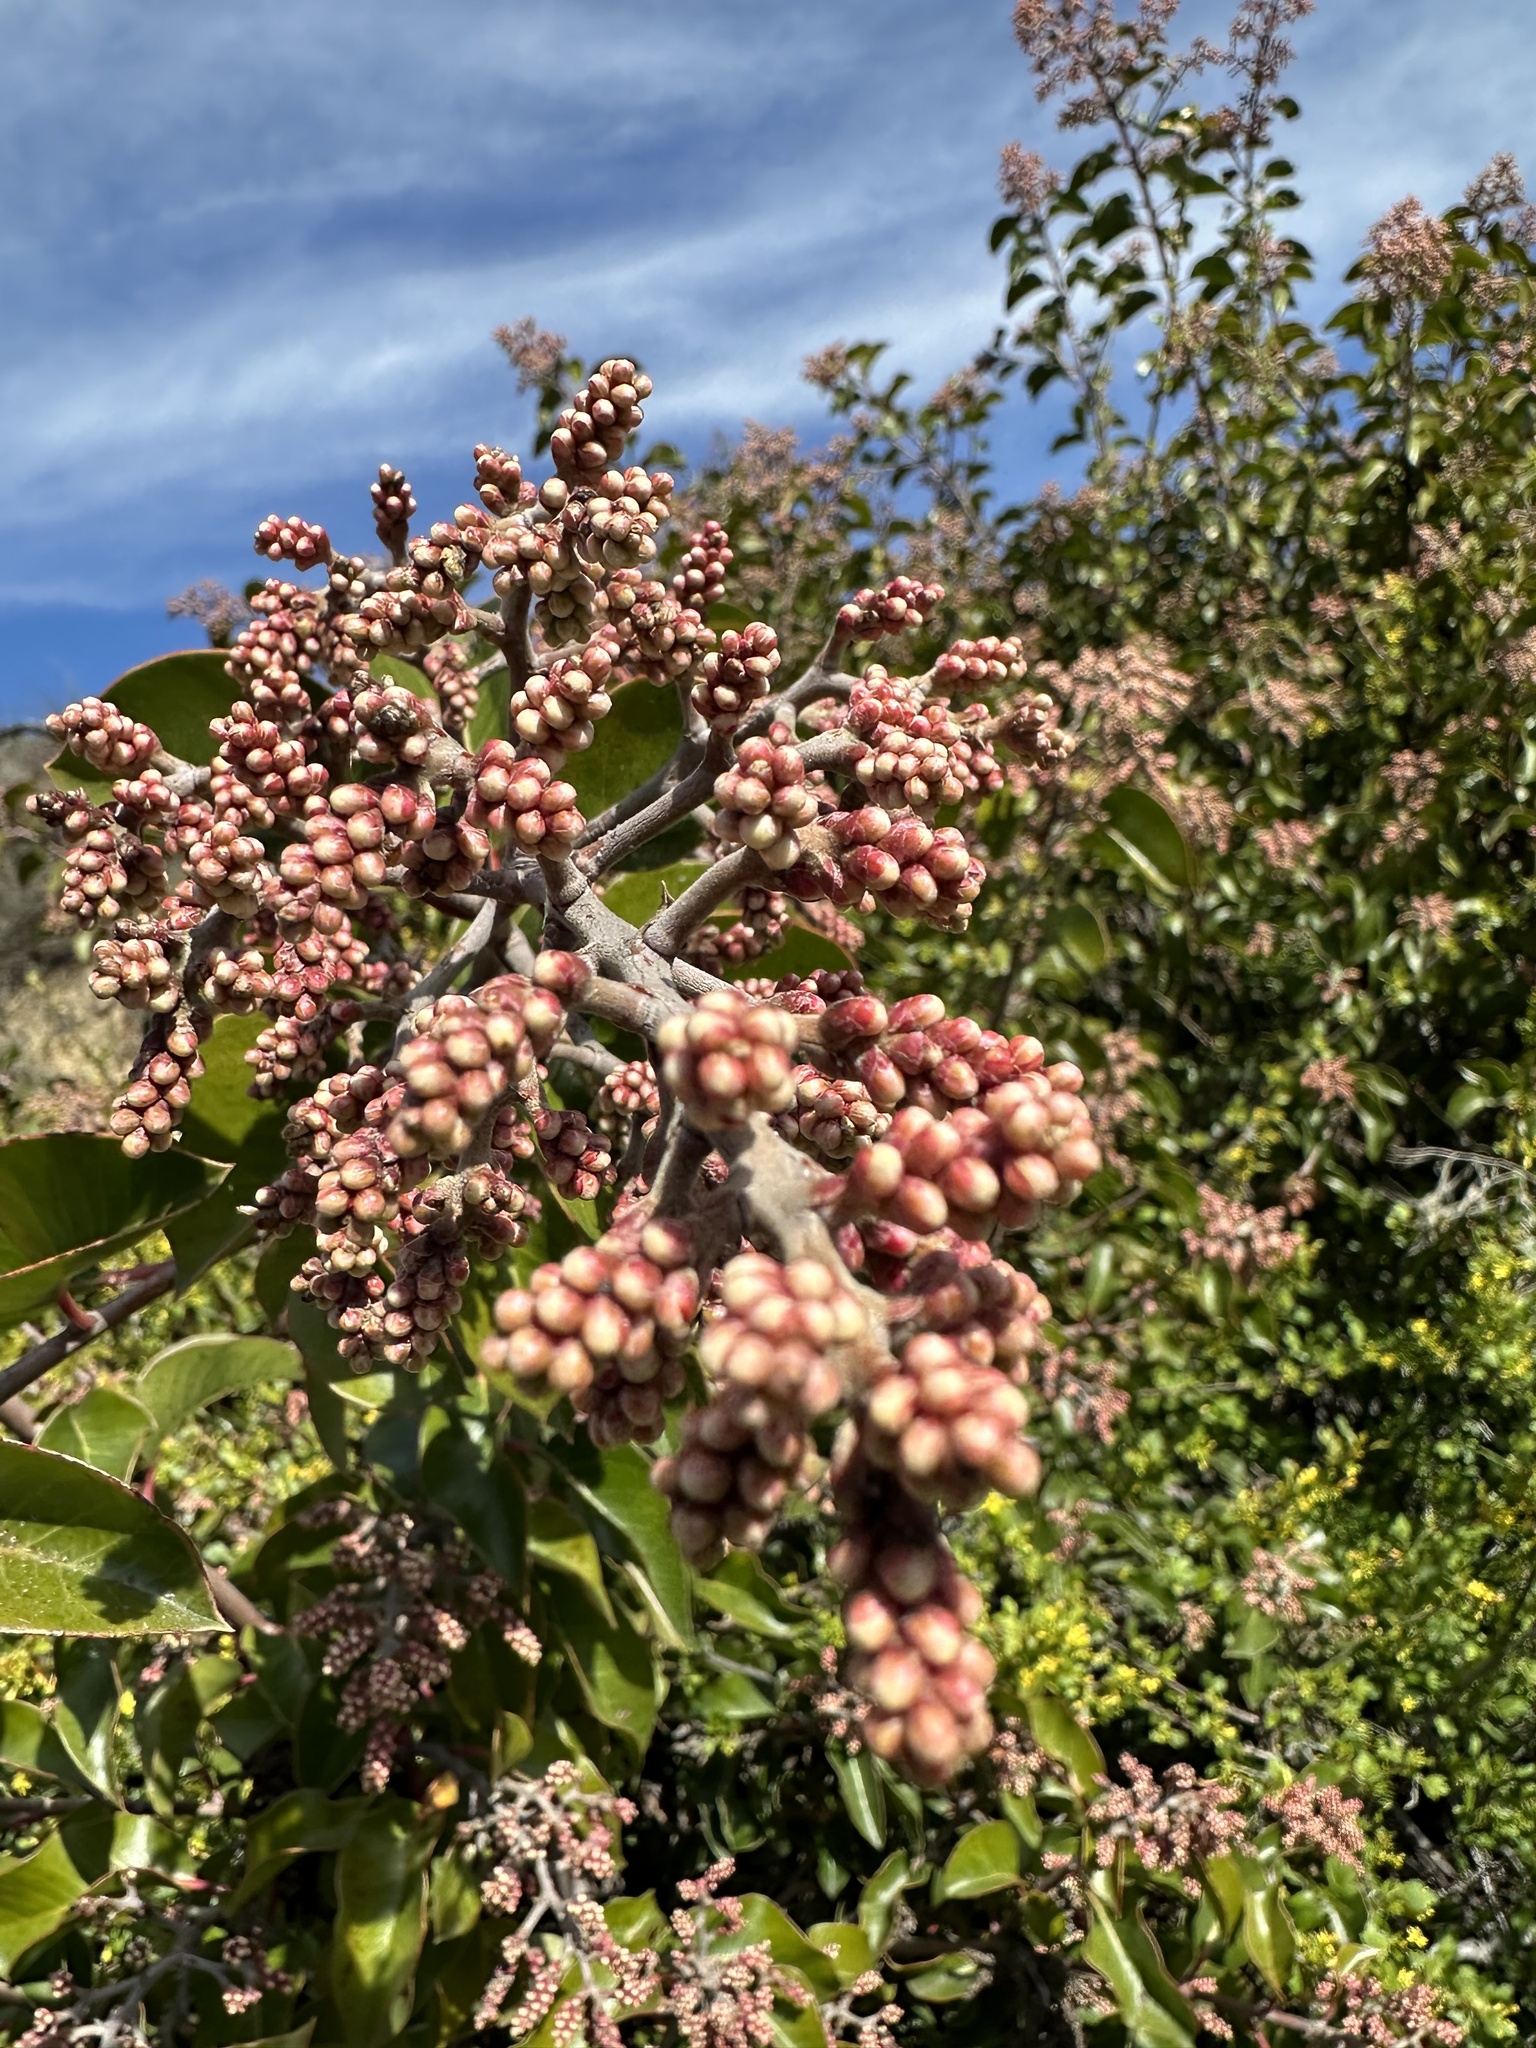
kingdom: Plantae
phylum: Tracheophyta
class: Magnoliopsida
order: Sapindales
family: Anacardiaceae
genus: Rhus
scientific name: Rhus ovata
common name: Sugar sumac
